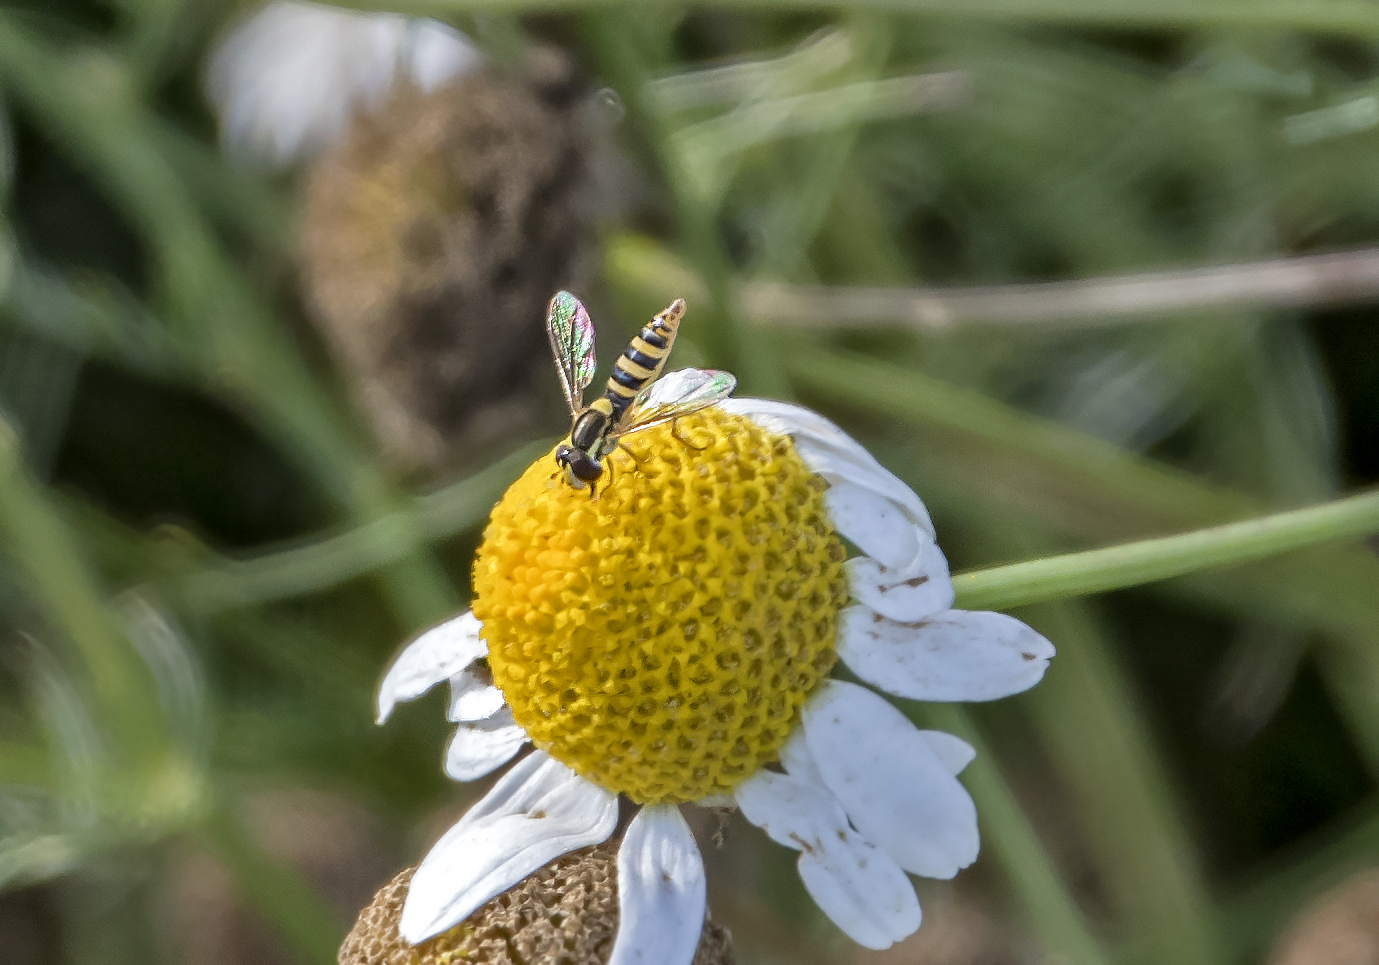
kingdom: Animalia
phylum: Arthropoda
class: Insecta
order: Diptera
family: Syrphidae
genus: Sphaerophoria
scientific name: Sphaerophoria
